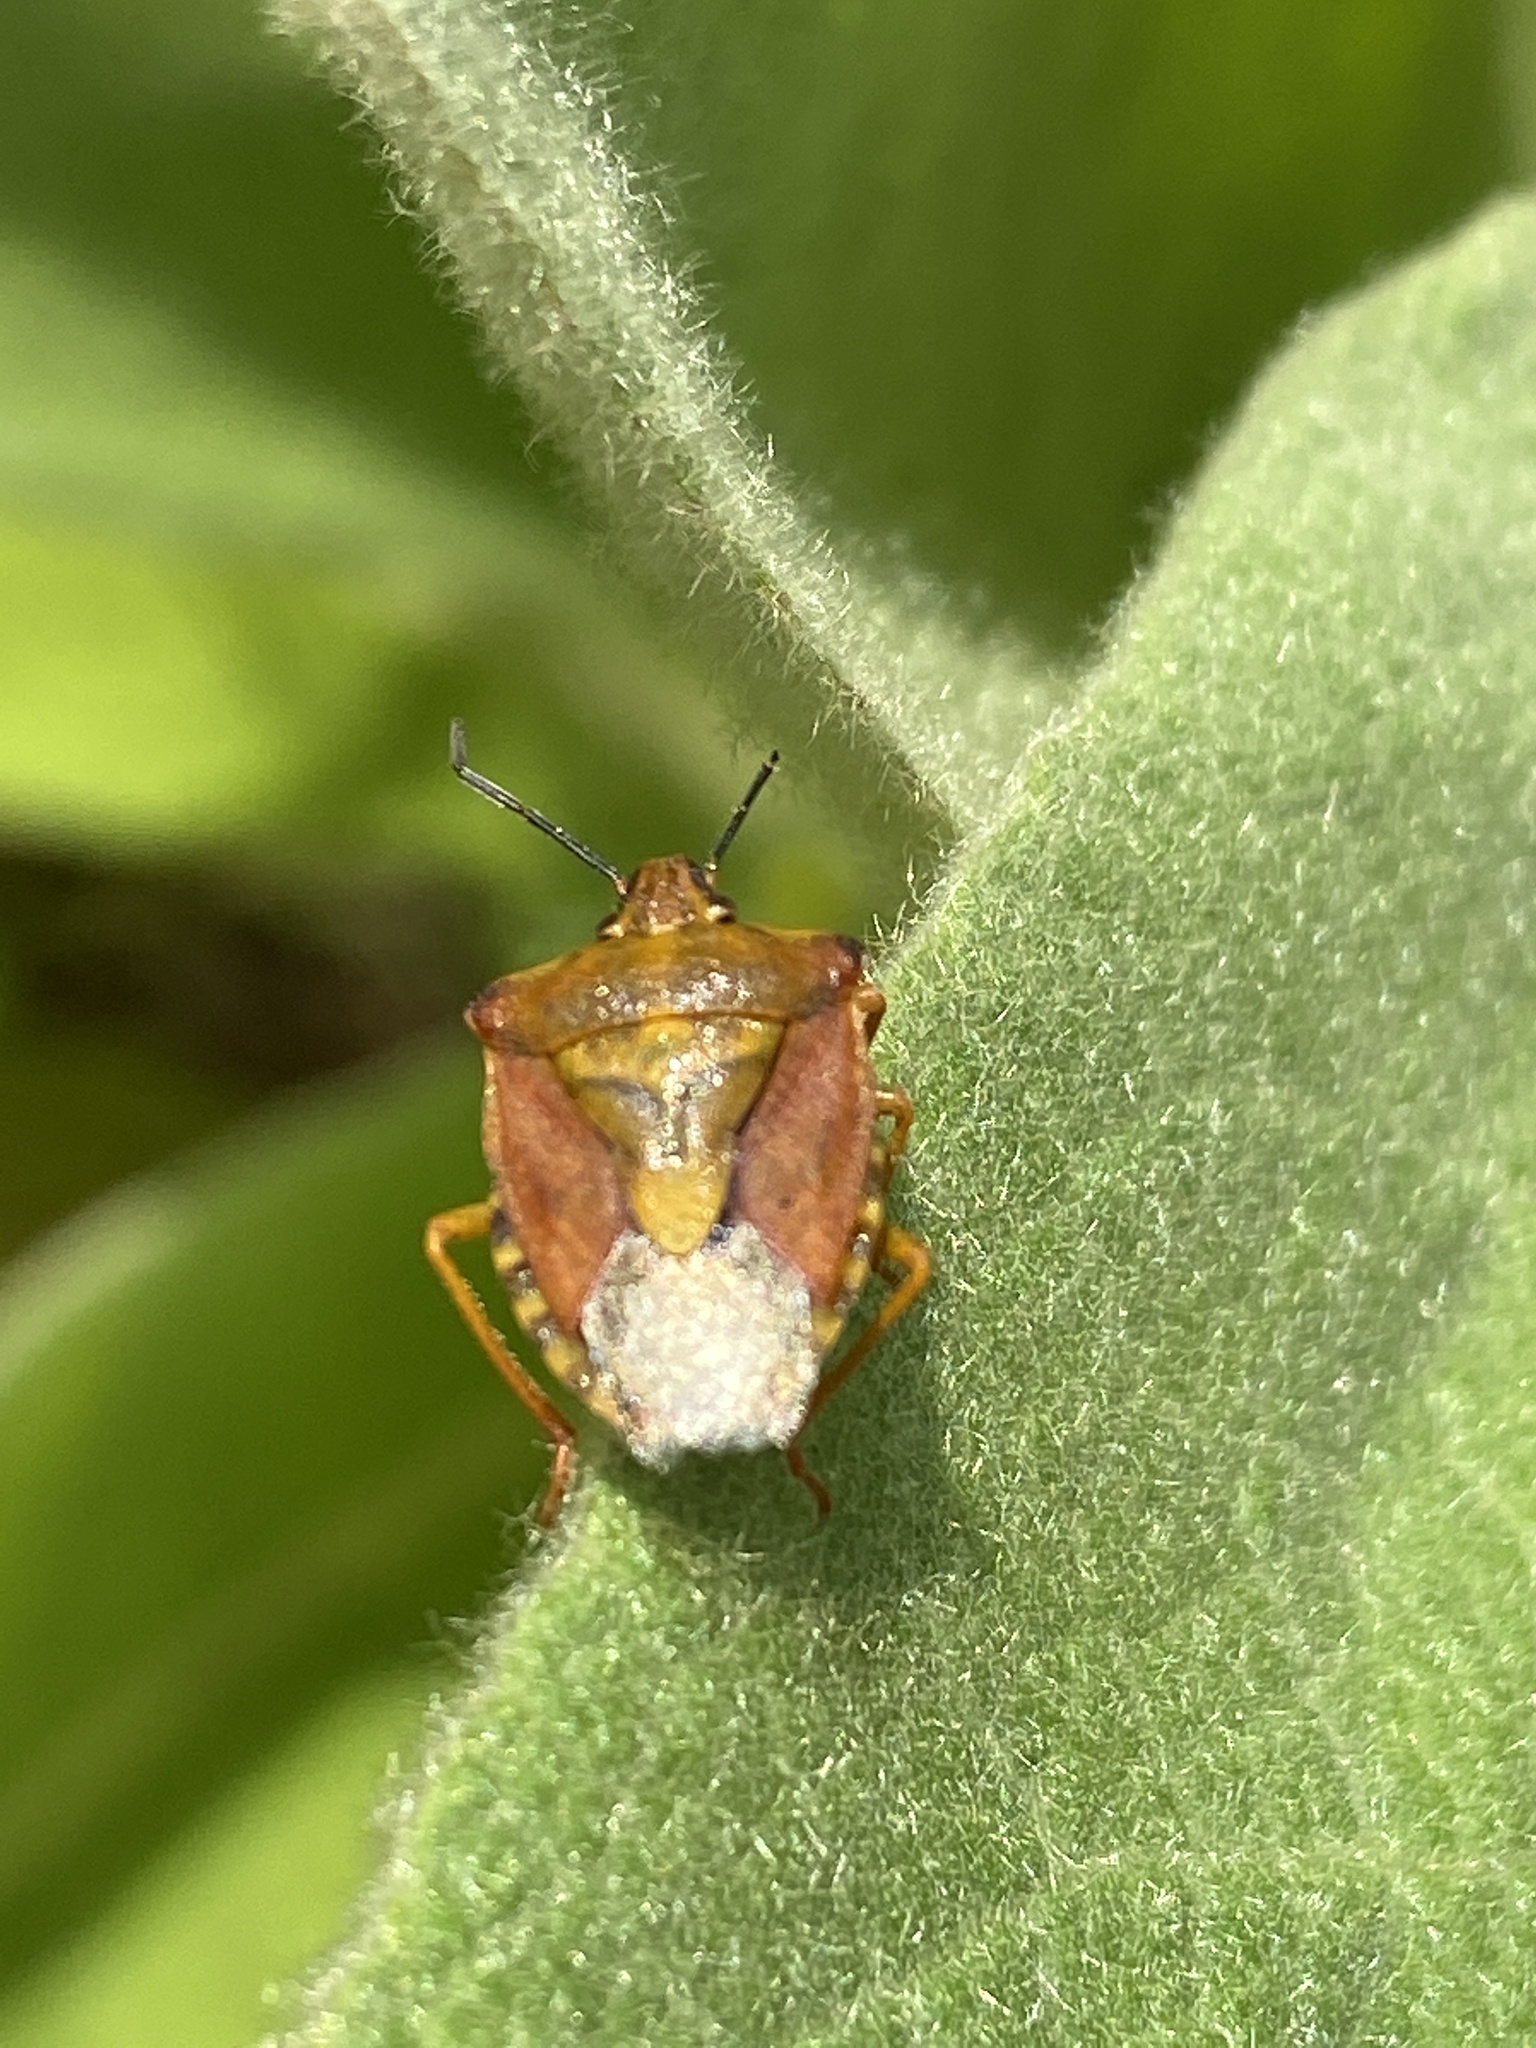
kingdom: Animalia
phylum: Arthropoda
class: Insecta
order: Hemiptera
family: Pentatomidae
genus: Carpocoris
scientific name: Carpocoris purpureipennis
